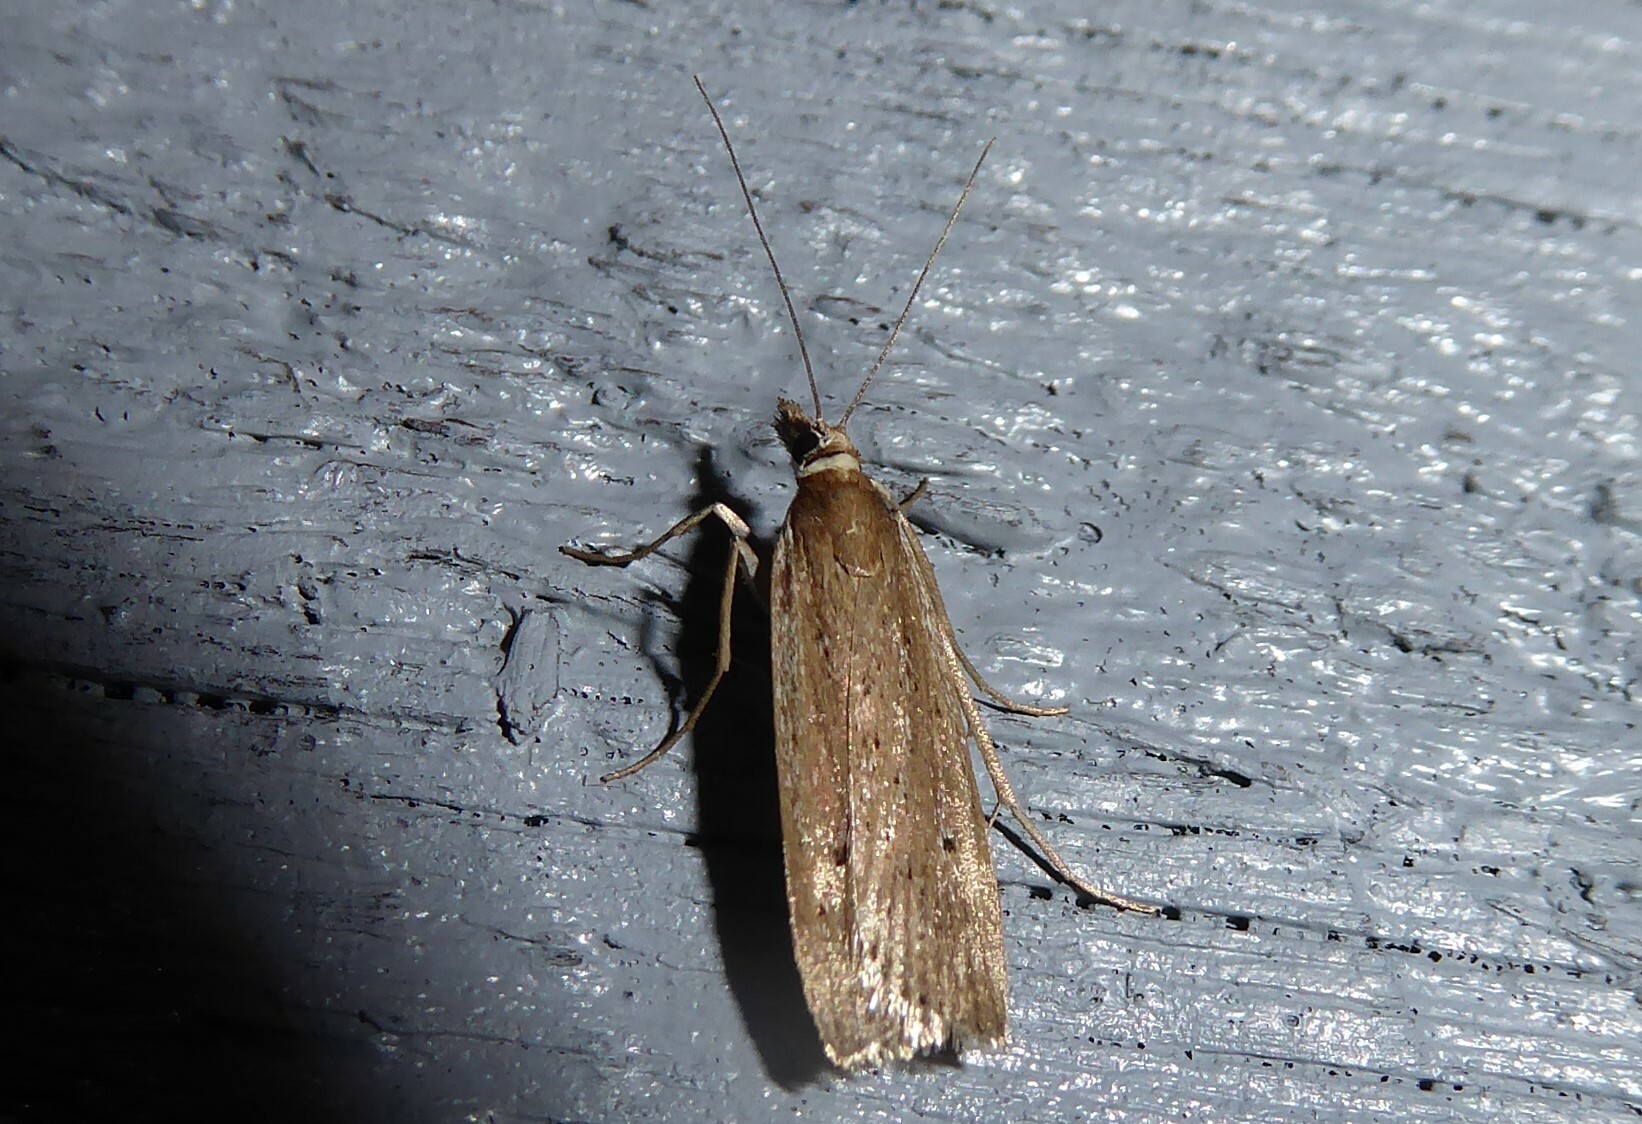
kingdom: Animalia
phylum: Arthropoda
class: Insecta
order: Lepidoptera
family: Crambidae
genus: Eudonia
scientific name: Eudonia sabulosella
